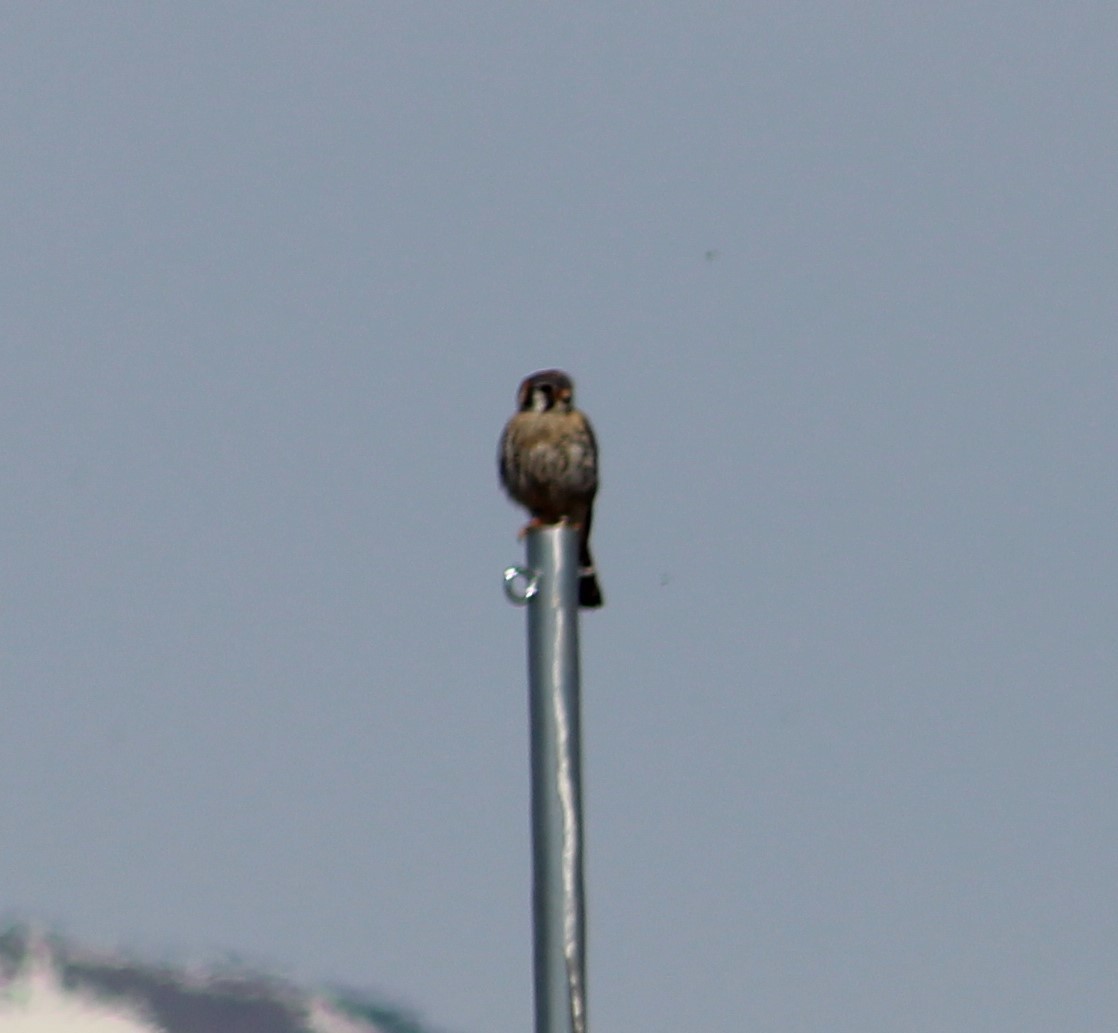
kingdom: Animalia
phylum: Chordata
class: Aves
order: Falconiformes
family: Falconidae
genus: Falco
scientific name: Falco sparverius
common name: American kestrel
